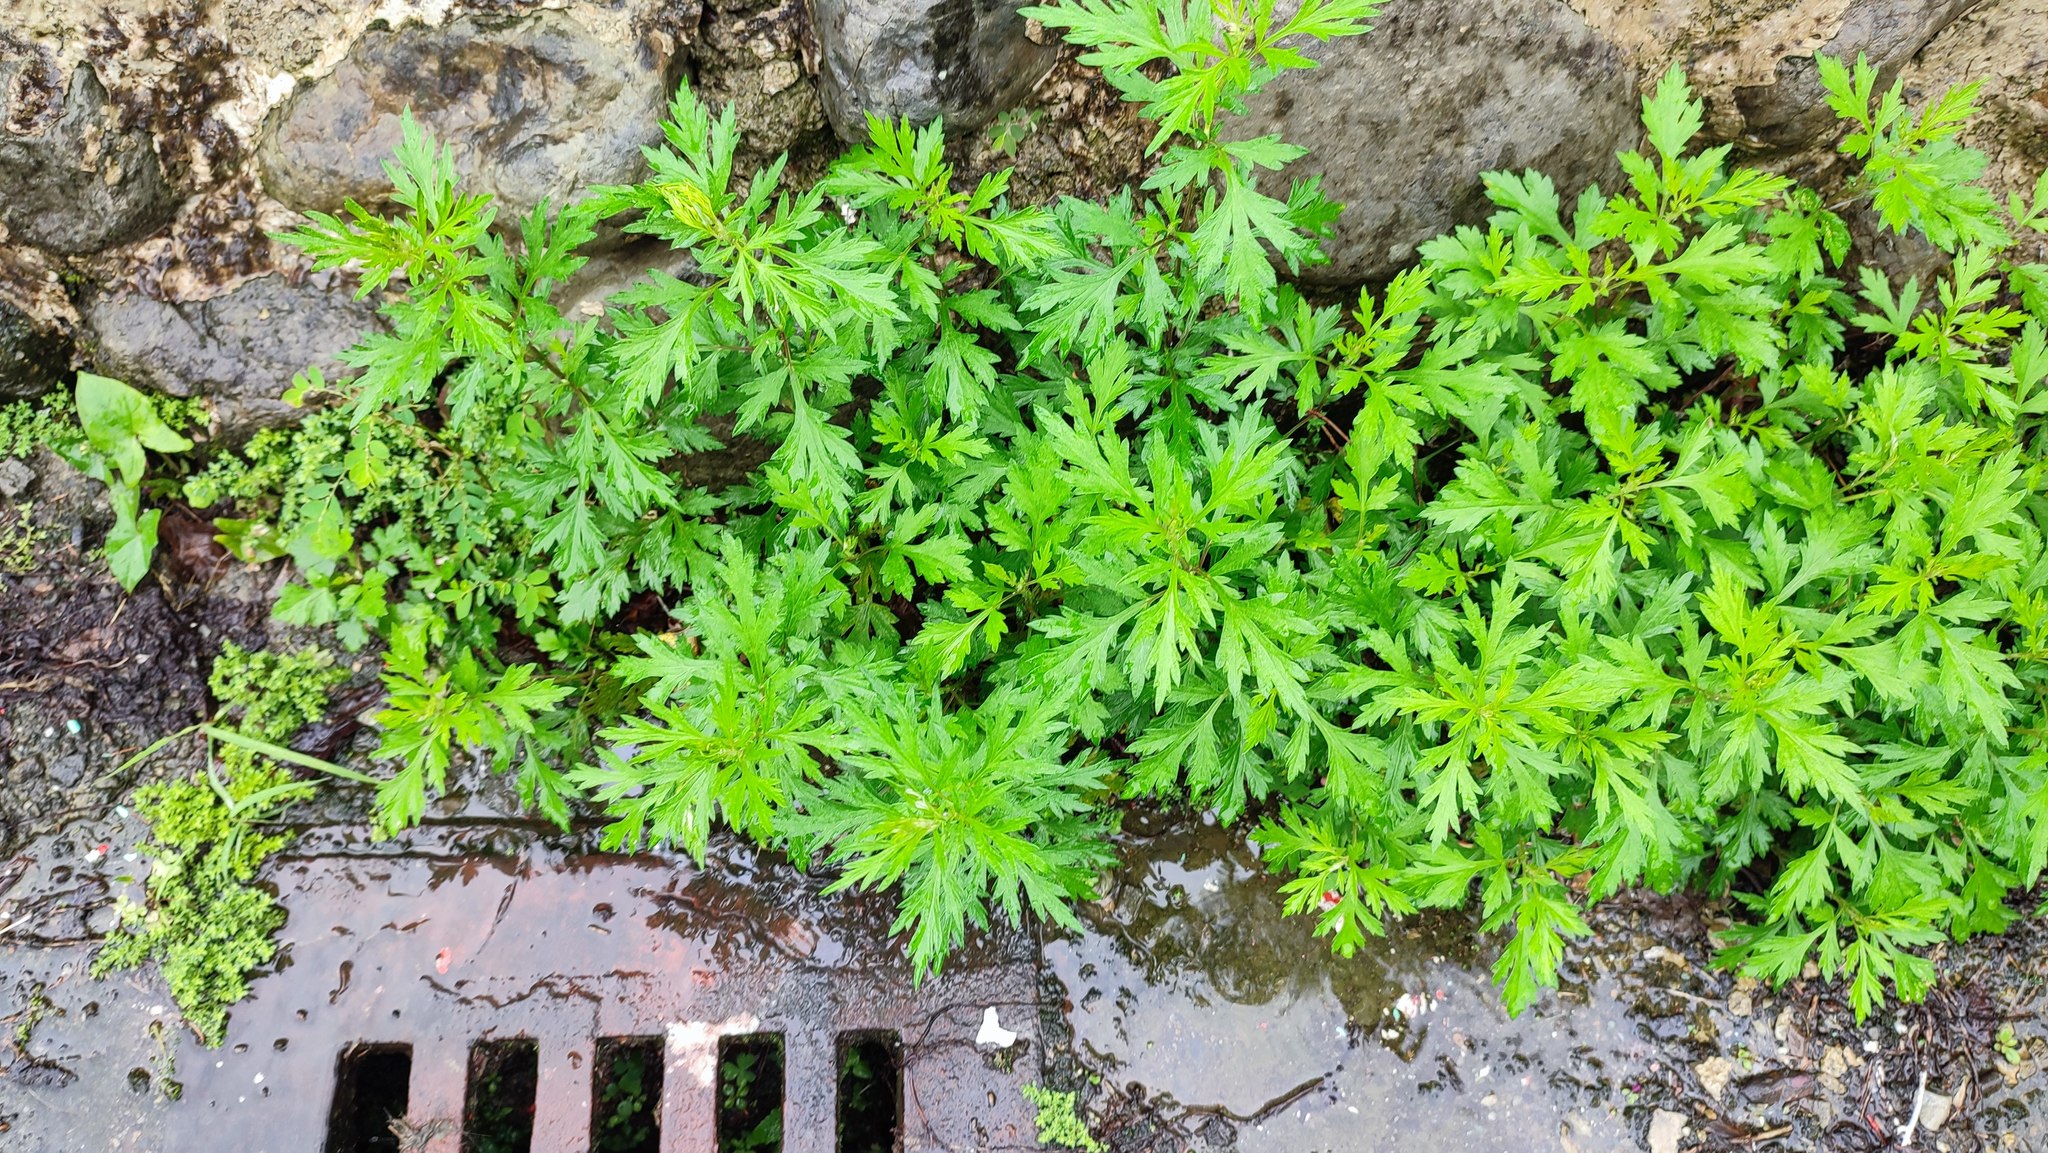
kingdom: Plantae
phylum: Tracheophyta
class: Magnoliopsida
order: Asterales
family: Asteraceae
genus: Artemisia
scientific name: Artemisia indica
